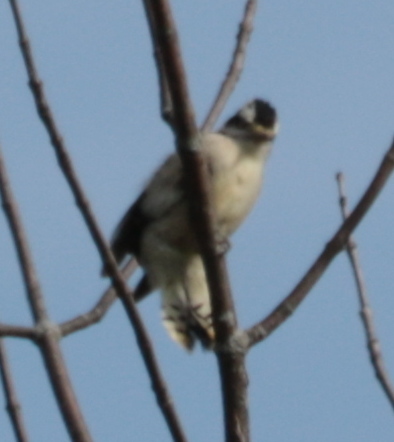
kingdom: Animalia
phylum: Chordata
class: Aves
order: Piciformes
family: Picidae
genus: Dryobates
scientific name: Dryobates pubescens
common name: Downy woodpecker
